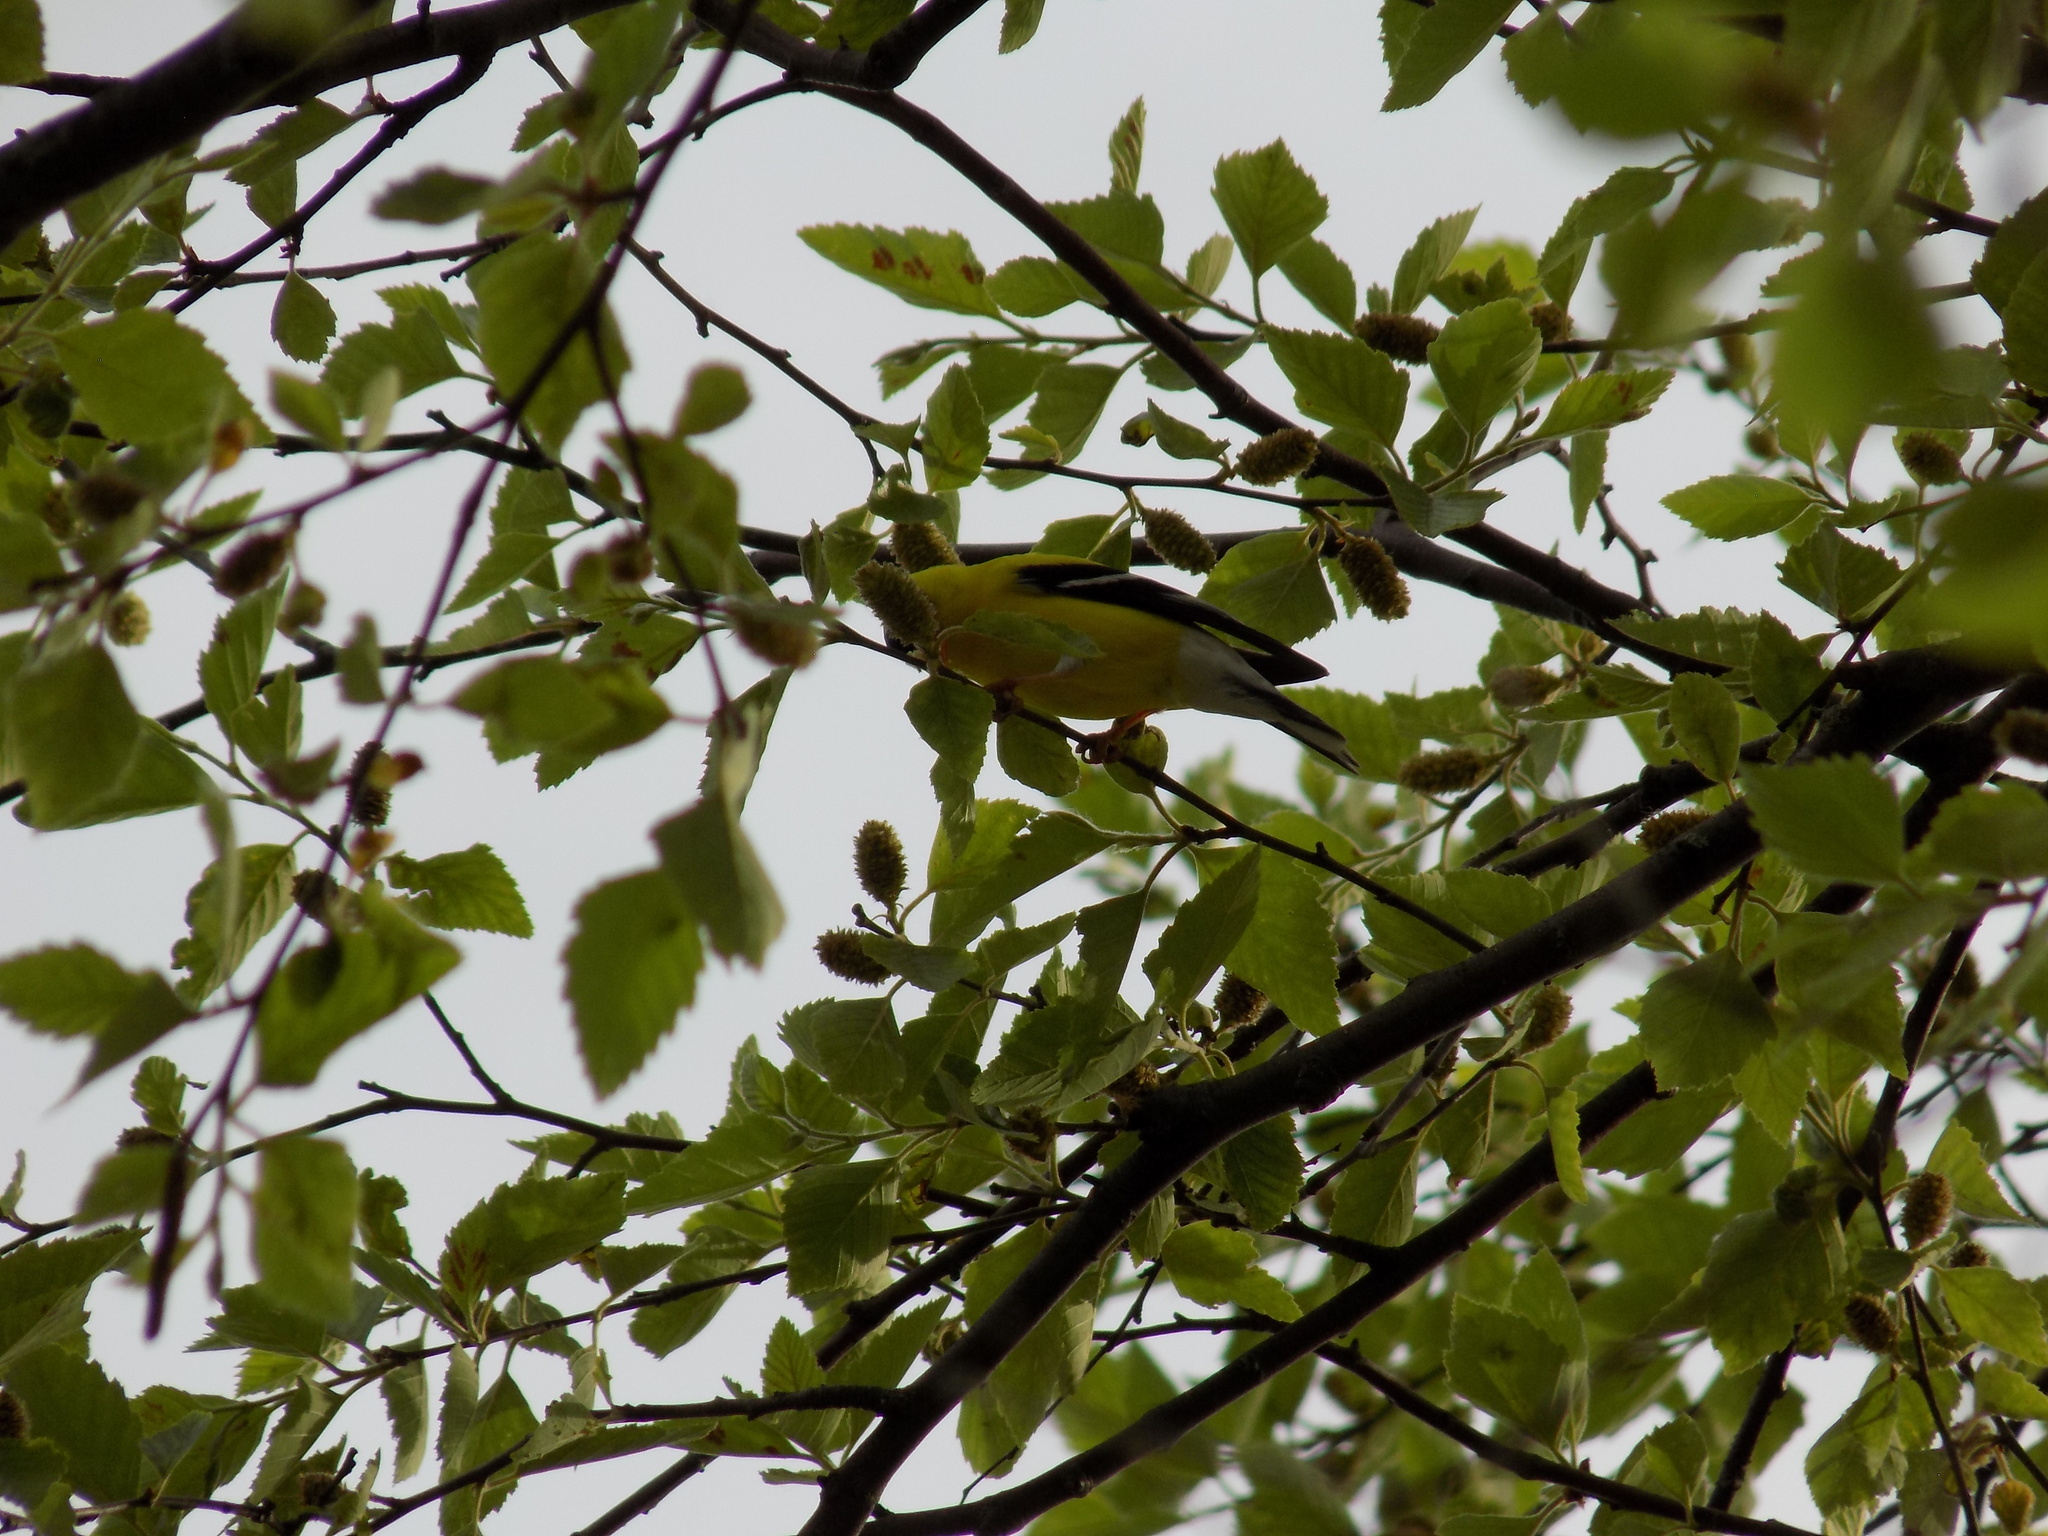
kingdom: Animalia
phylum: Chordata
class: Aves
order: Passeriformes
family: Fringillidae
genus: Spinus
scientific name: Spinus tristis
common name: American goldfinch
